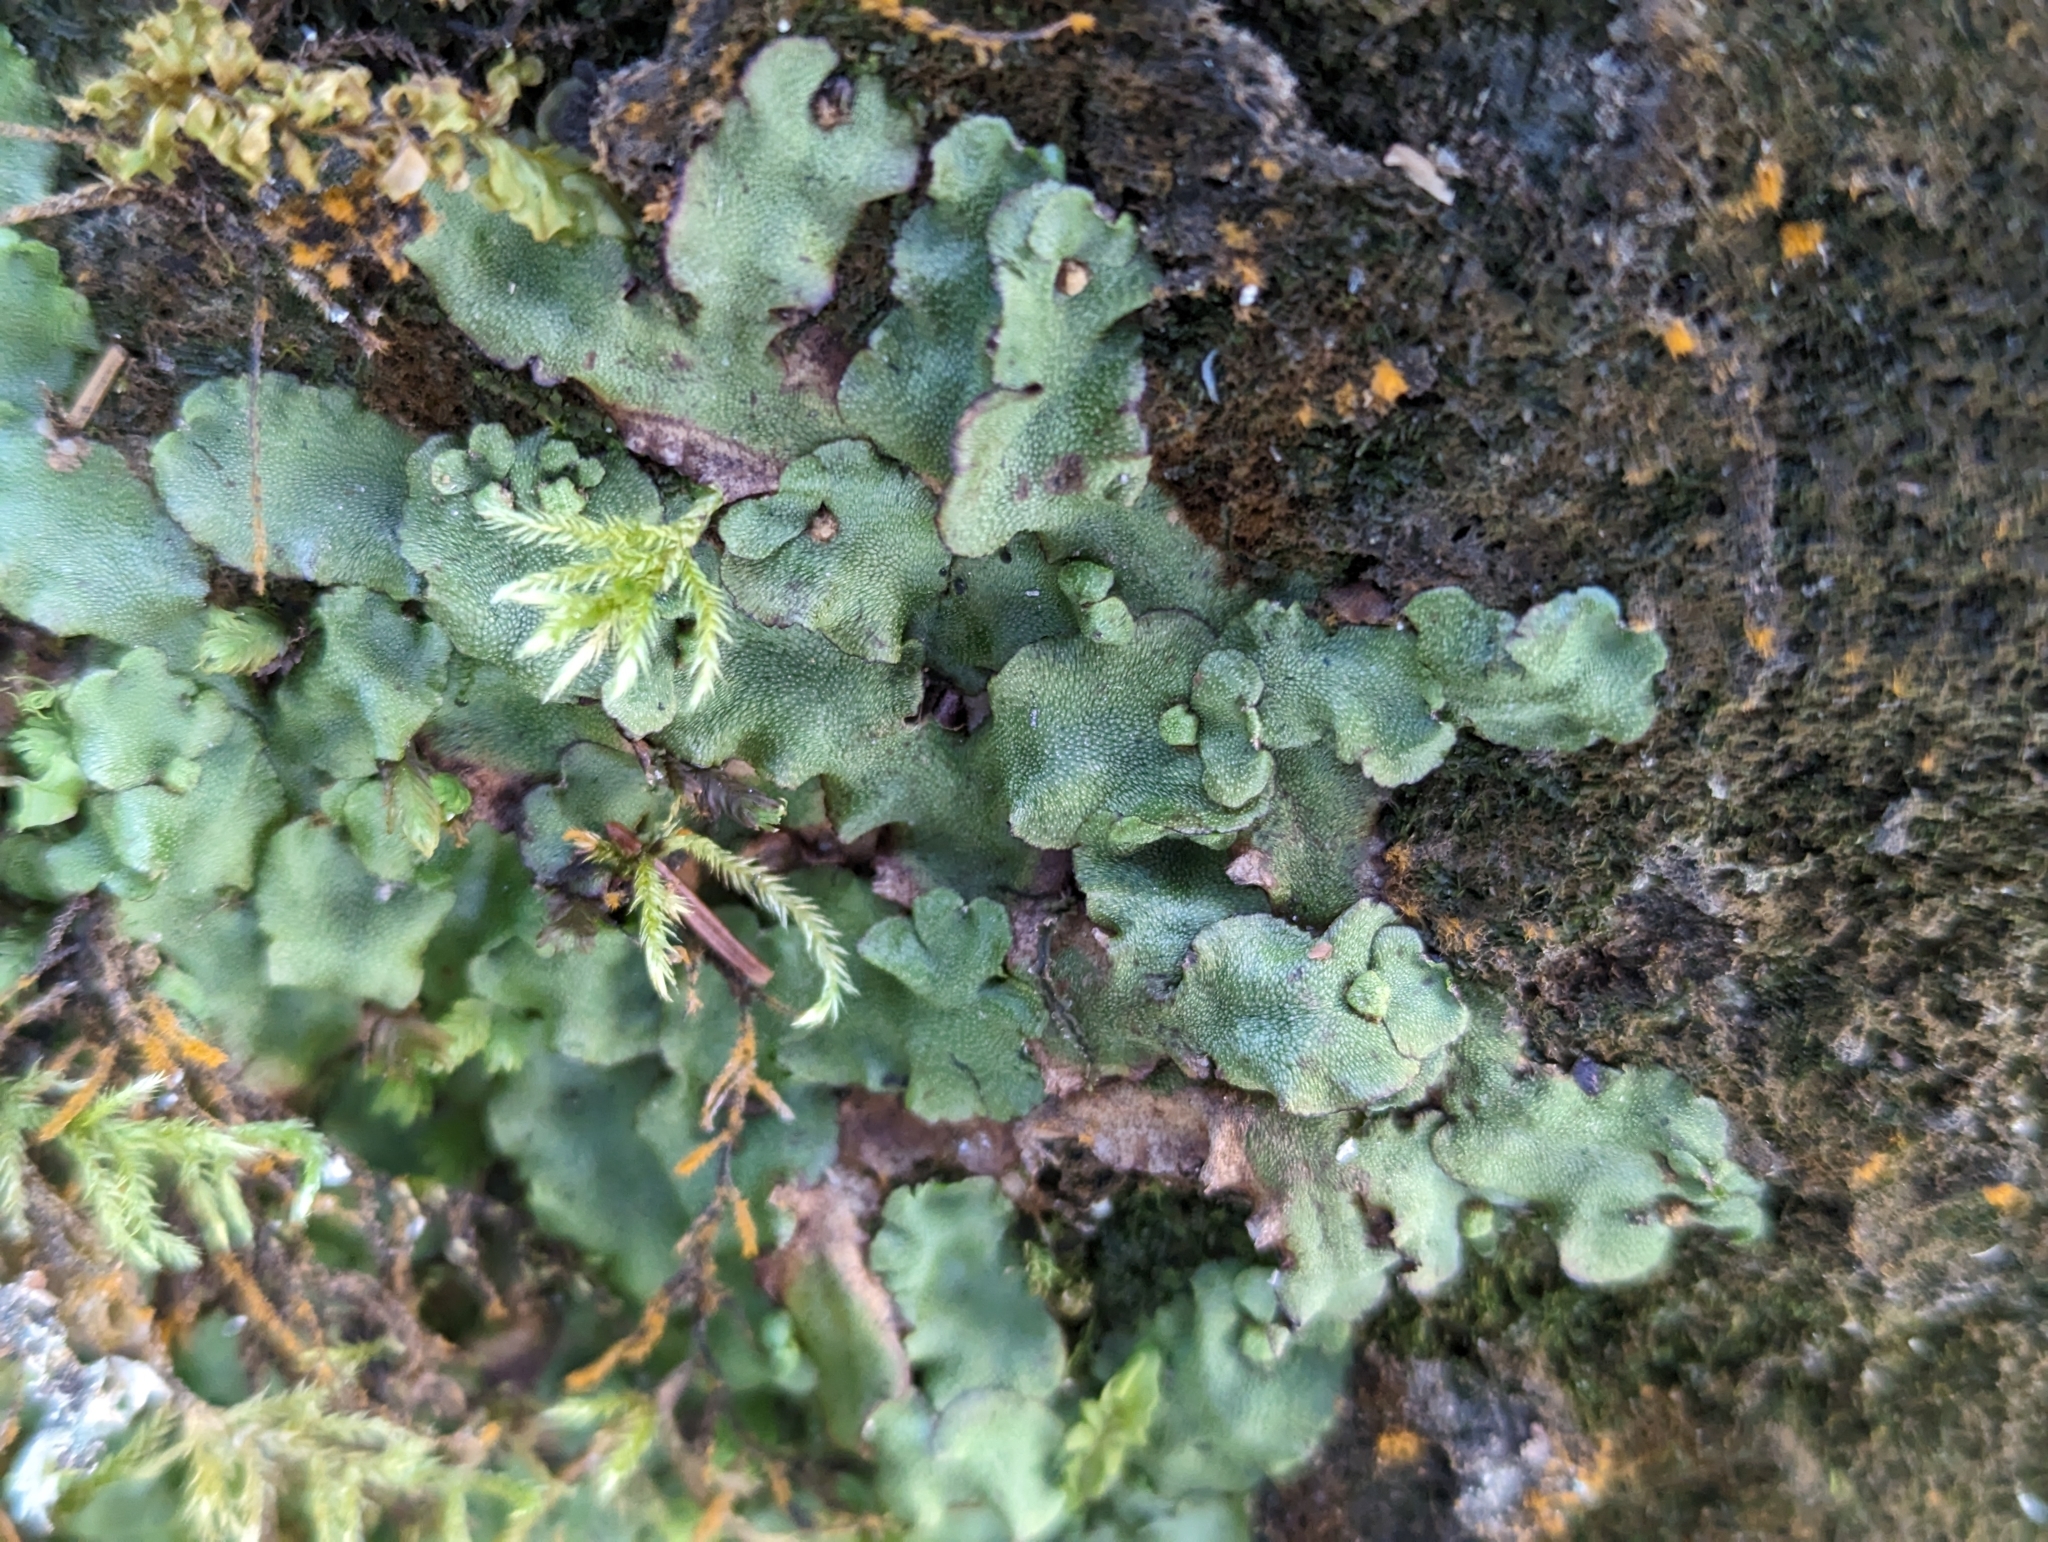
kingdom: Plantae
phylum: Marchantiophyta
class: Marchantiopsida
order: Marchantiales
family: Marchantiaceae
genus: Marchantia
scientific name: Marchantia quadrata
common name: Narrow mushroom-headed liverwort
